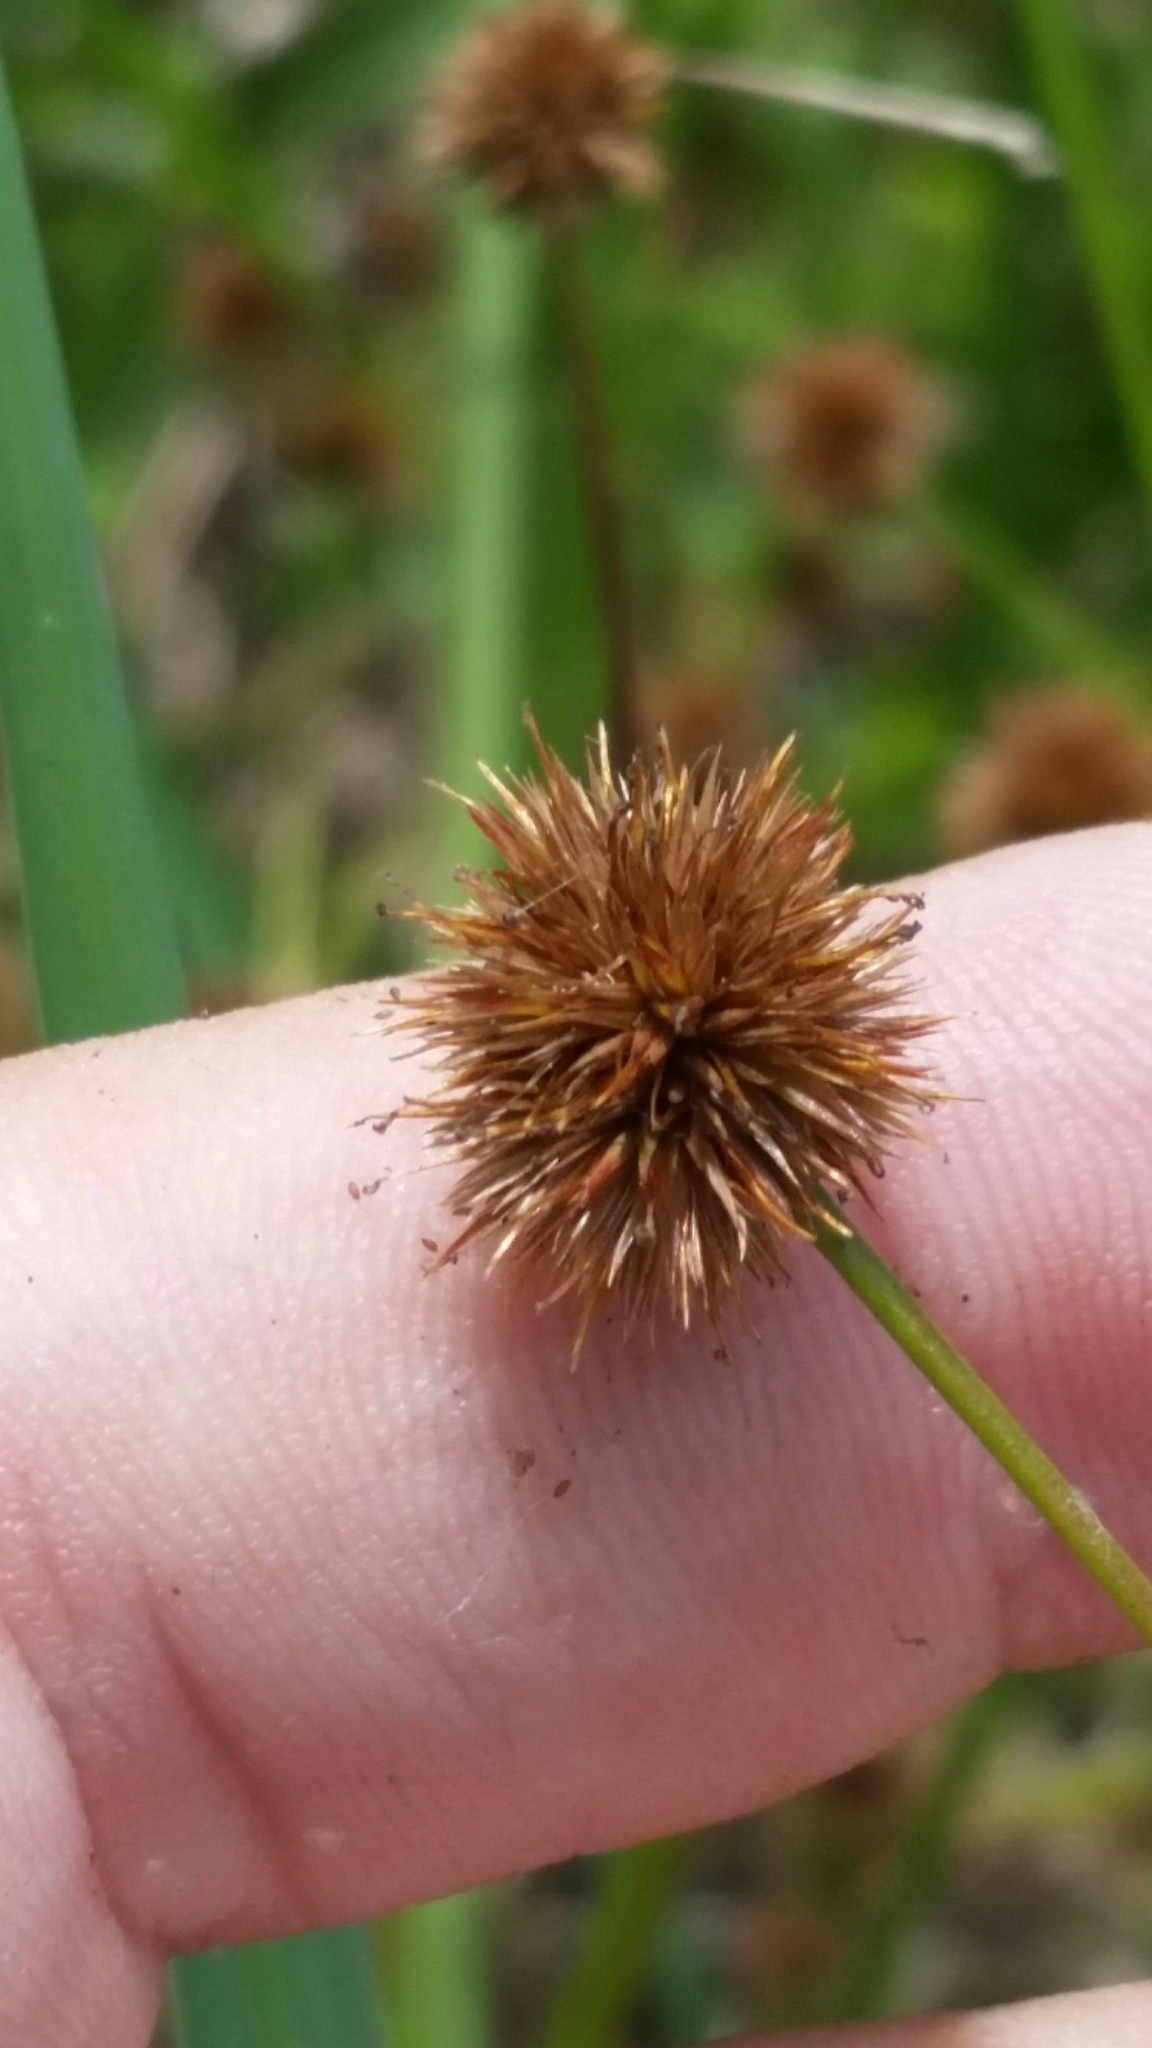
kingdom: Plantae
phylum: Tracheophyta
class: Liliopsida
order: Poales
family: Juncaceae
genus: Juncus
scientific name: Juncus paludosus
